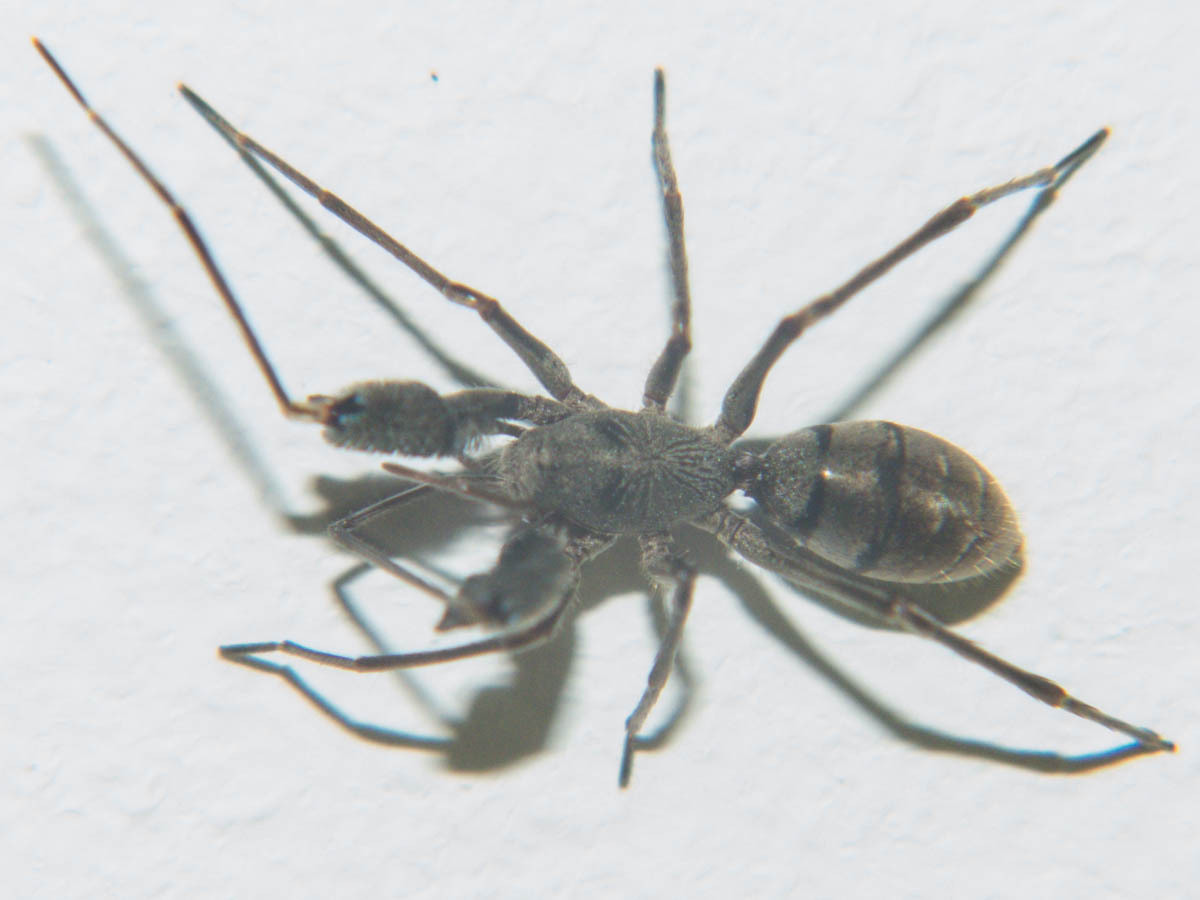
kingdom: Animalia
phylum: Arthropoda
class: Arachnida
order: Araneae
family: Corinnidae
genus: Pranburia
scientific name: Pranburia mahannopi
